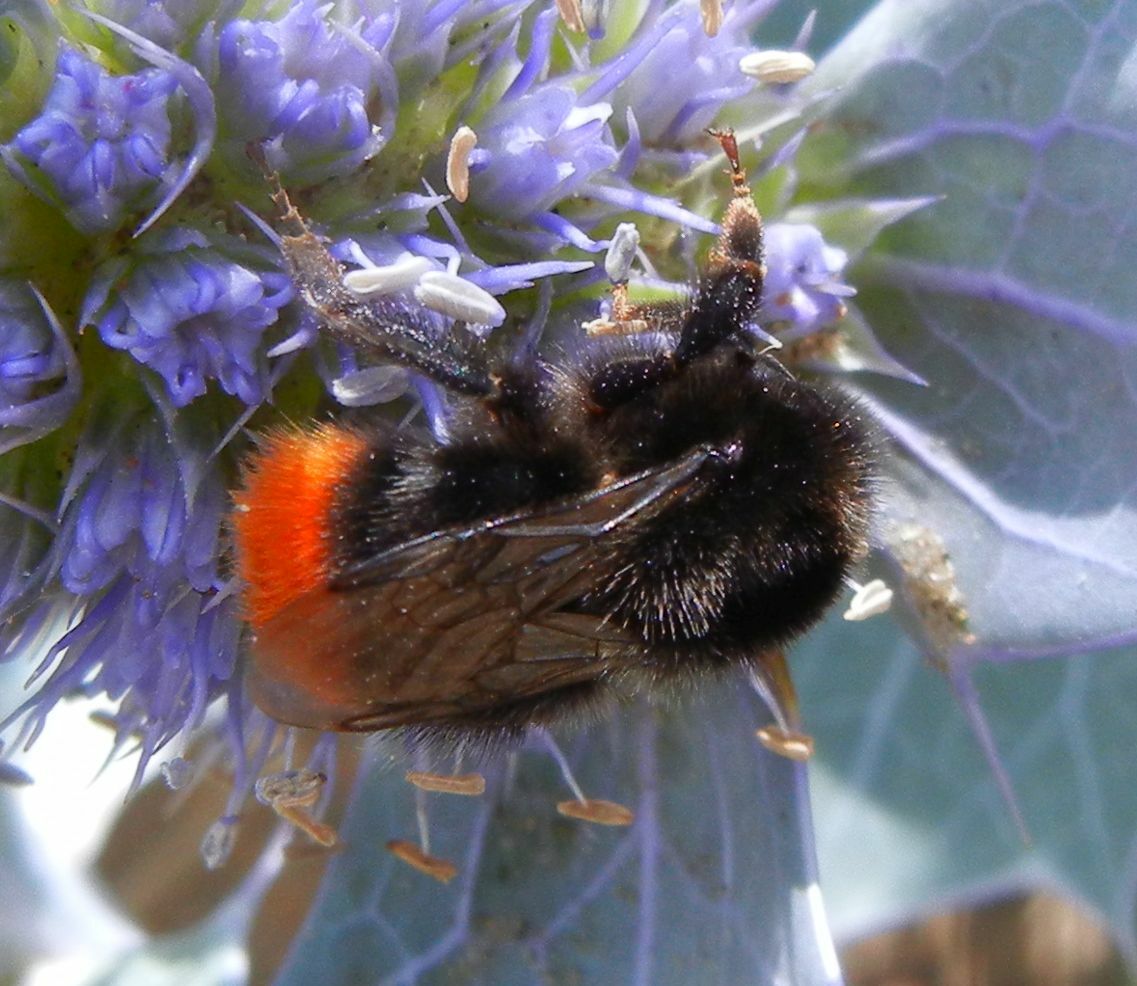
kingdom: Animalia
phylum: Arthropoda
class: Insecta
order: Hymenoptera
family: Apidae
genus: Bombus
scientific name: Bombus lapidarius
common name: Large red-tailed humble-bee
